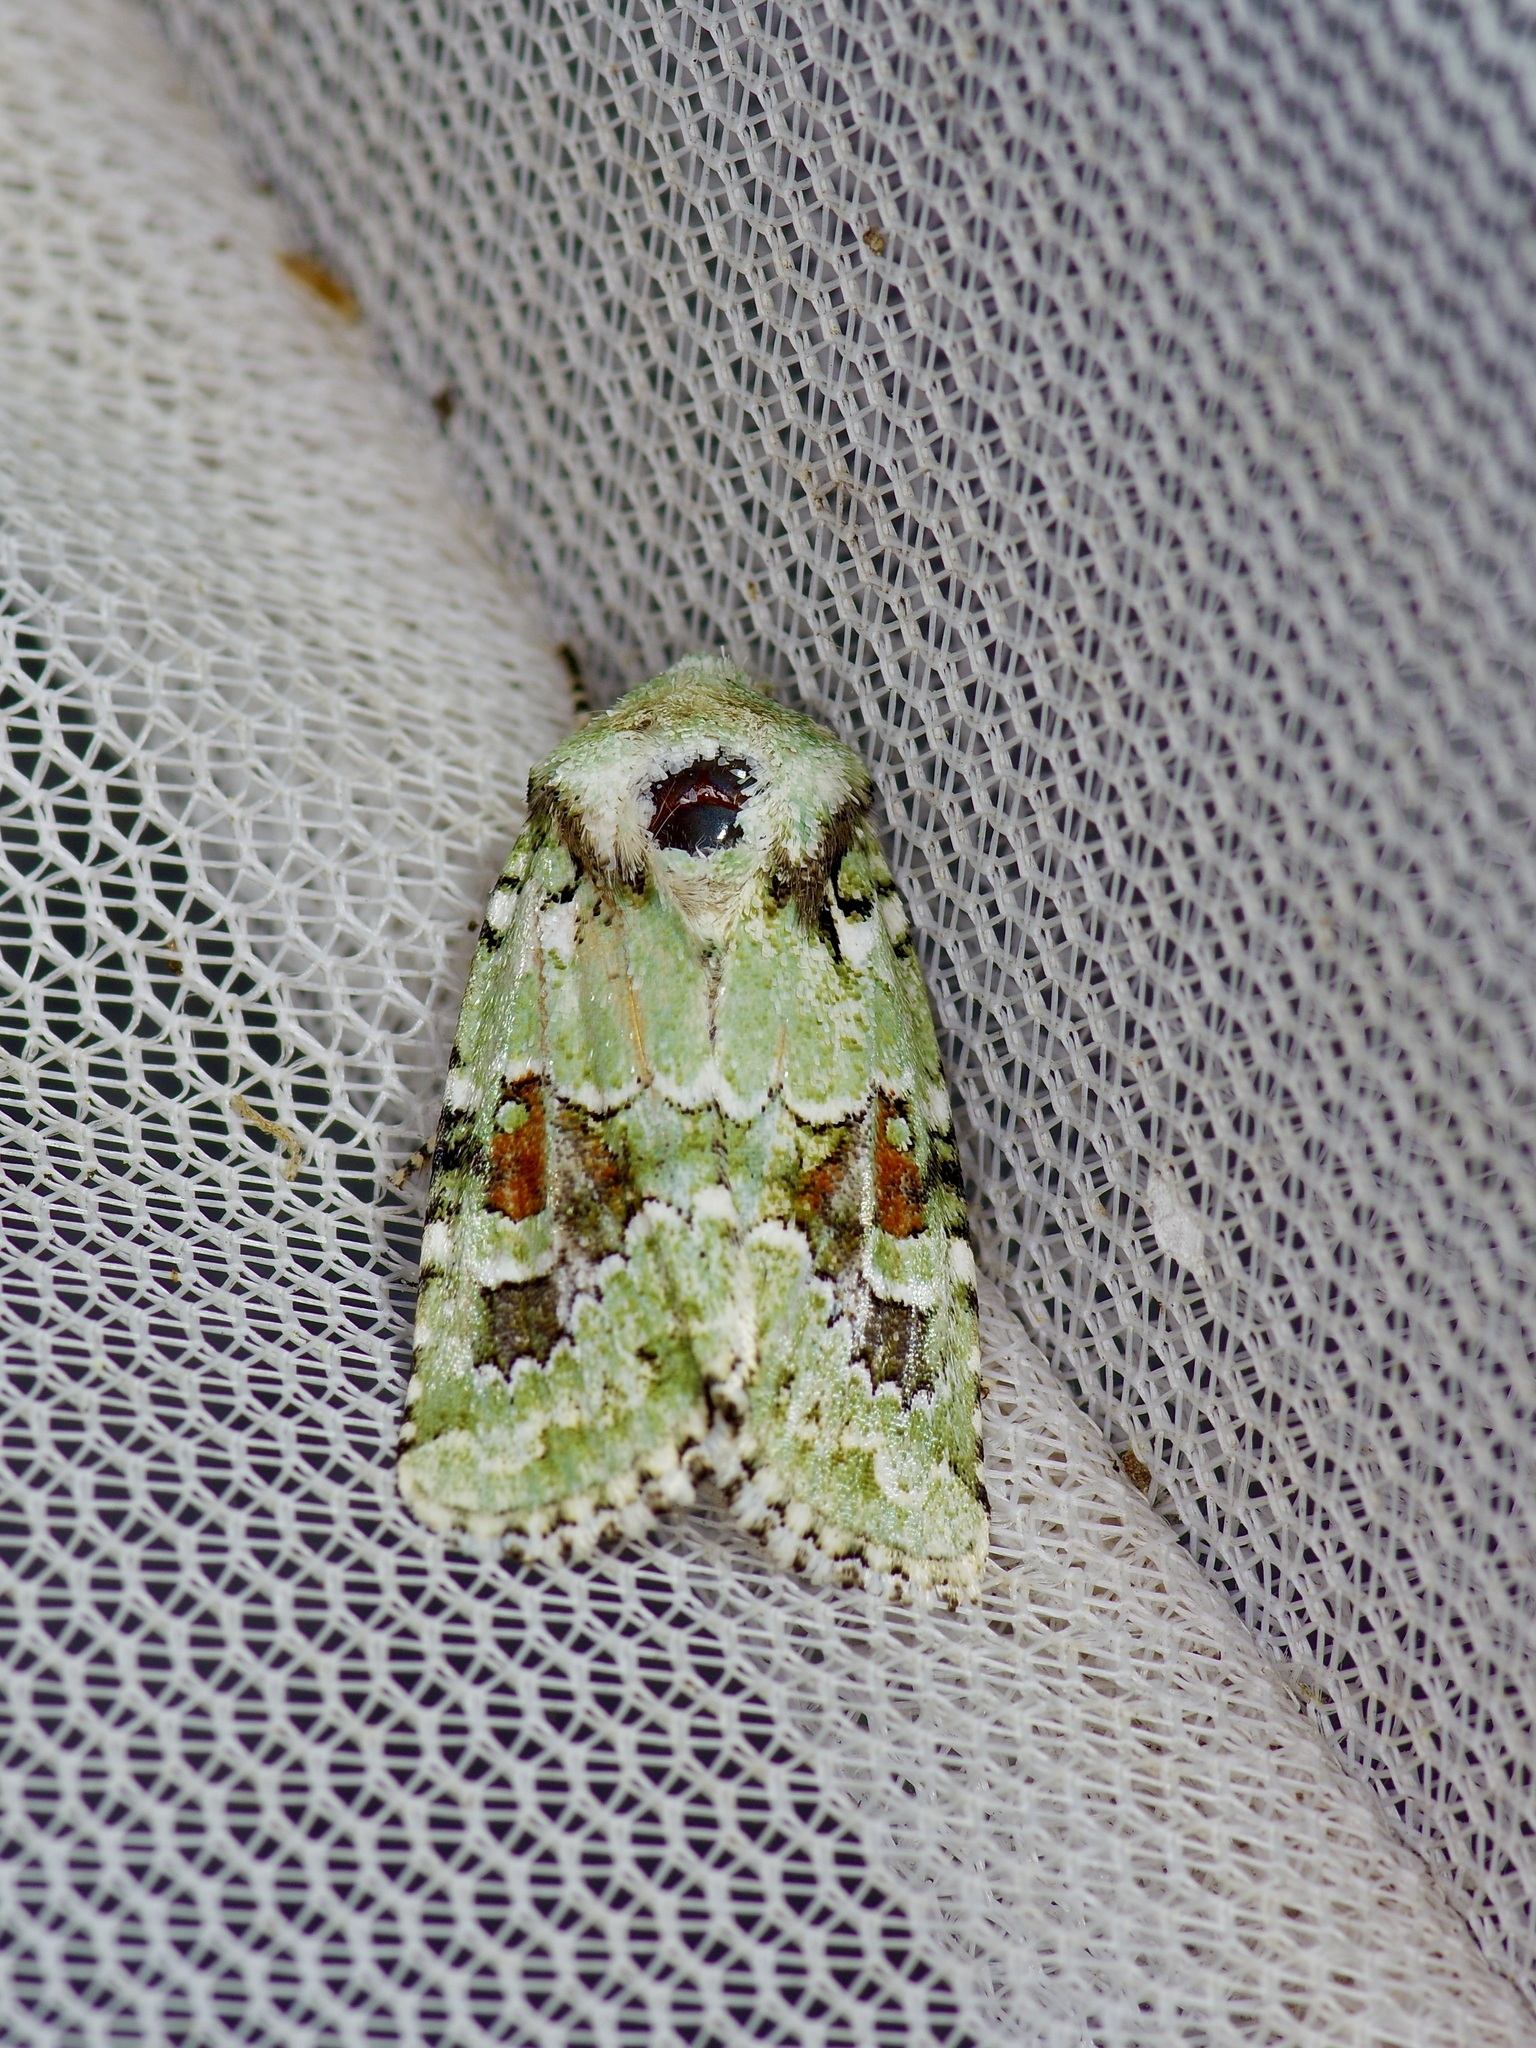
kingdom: Animalia
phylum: Arthropoda
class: Insecta
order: Lepidoptera
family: Noctuidae
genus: Lacinipolia
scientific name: Lacinipolia laudabilis
